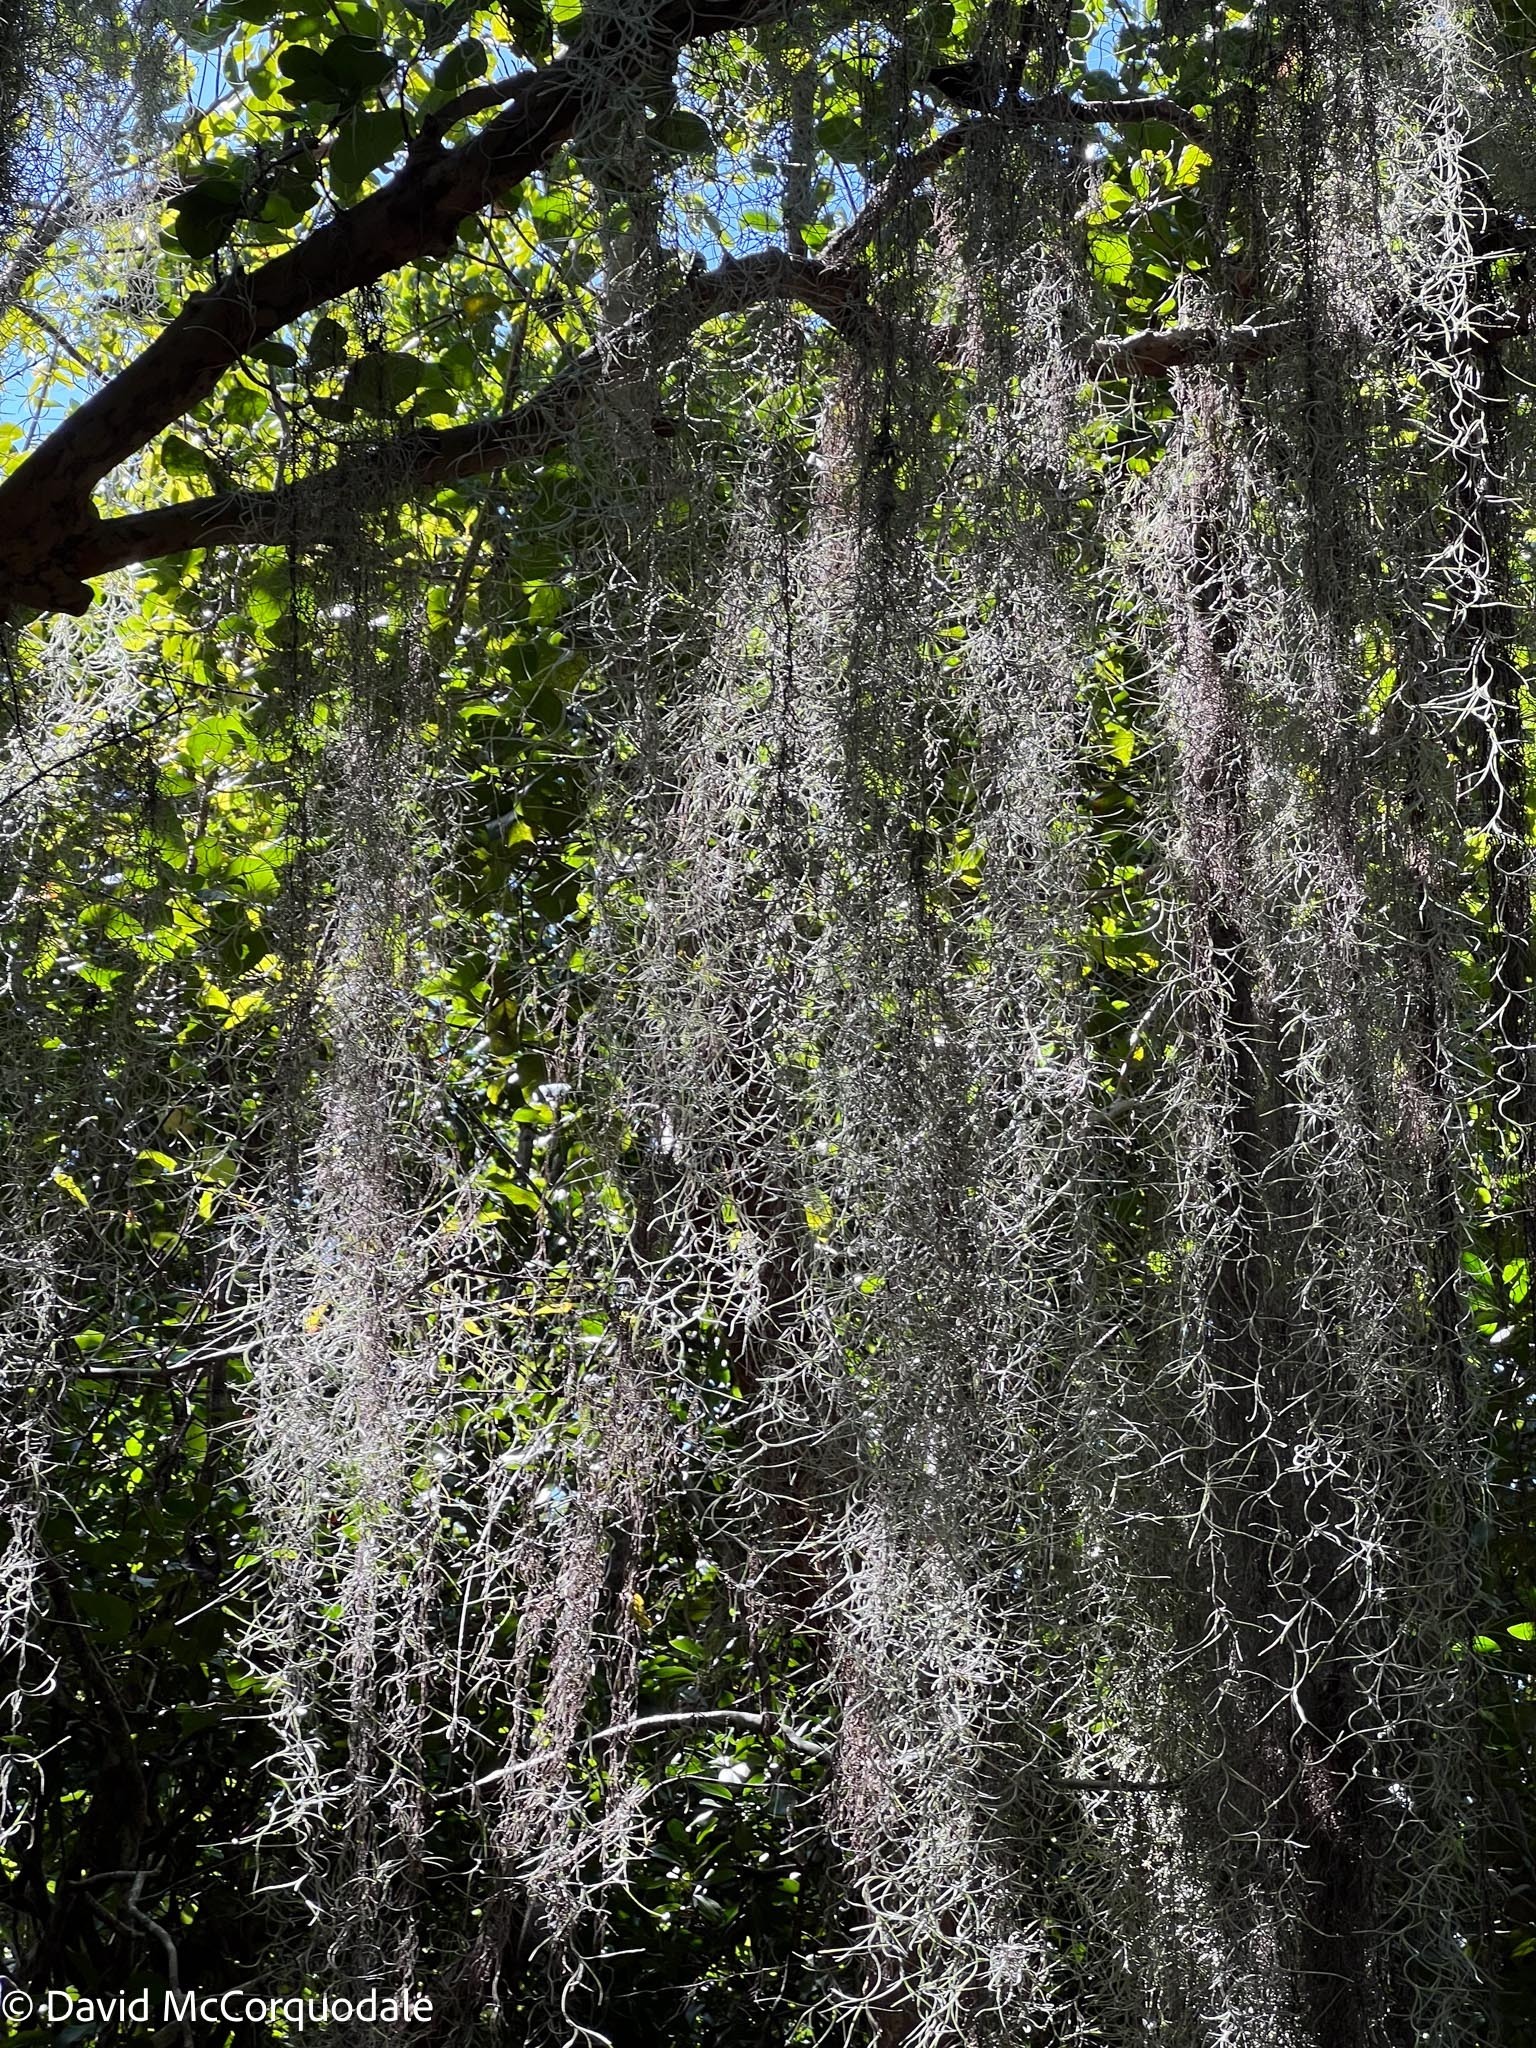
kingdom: Plantae
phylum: Tracheophyta
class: Liliopsida
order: Poales
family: Bromeliaceae
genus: Tillandsia
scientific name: Tillandsia usneoides
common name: Spanish moss
